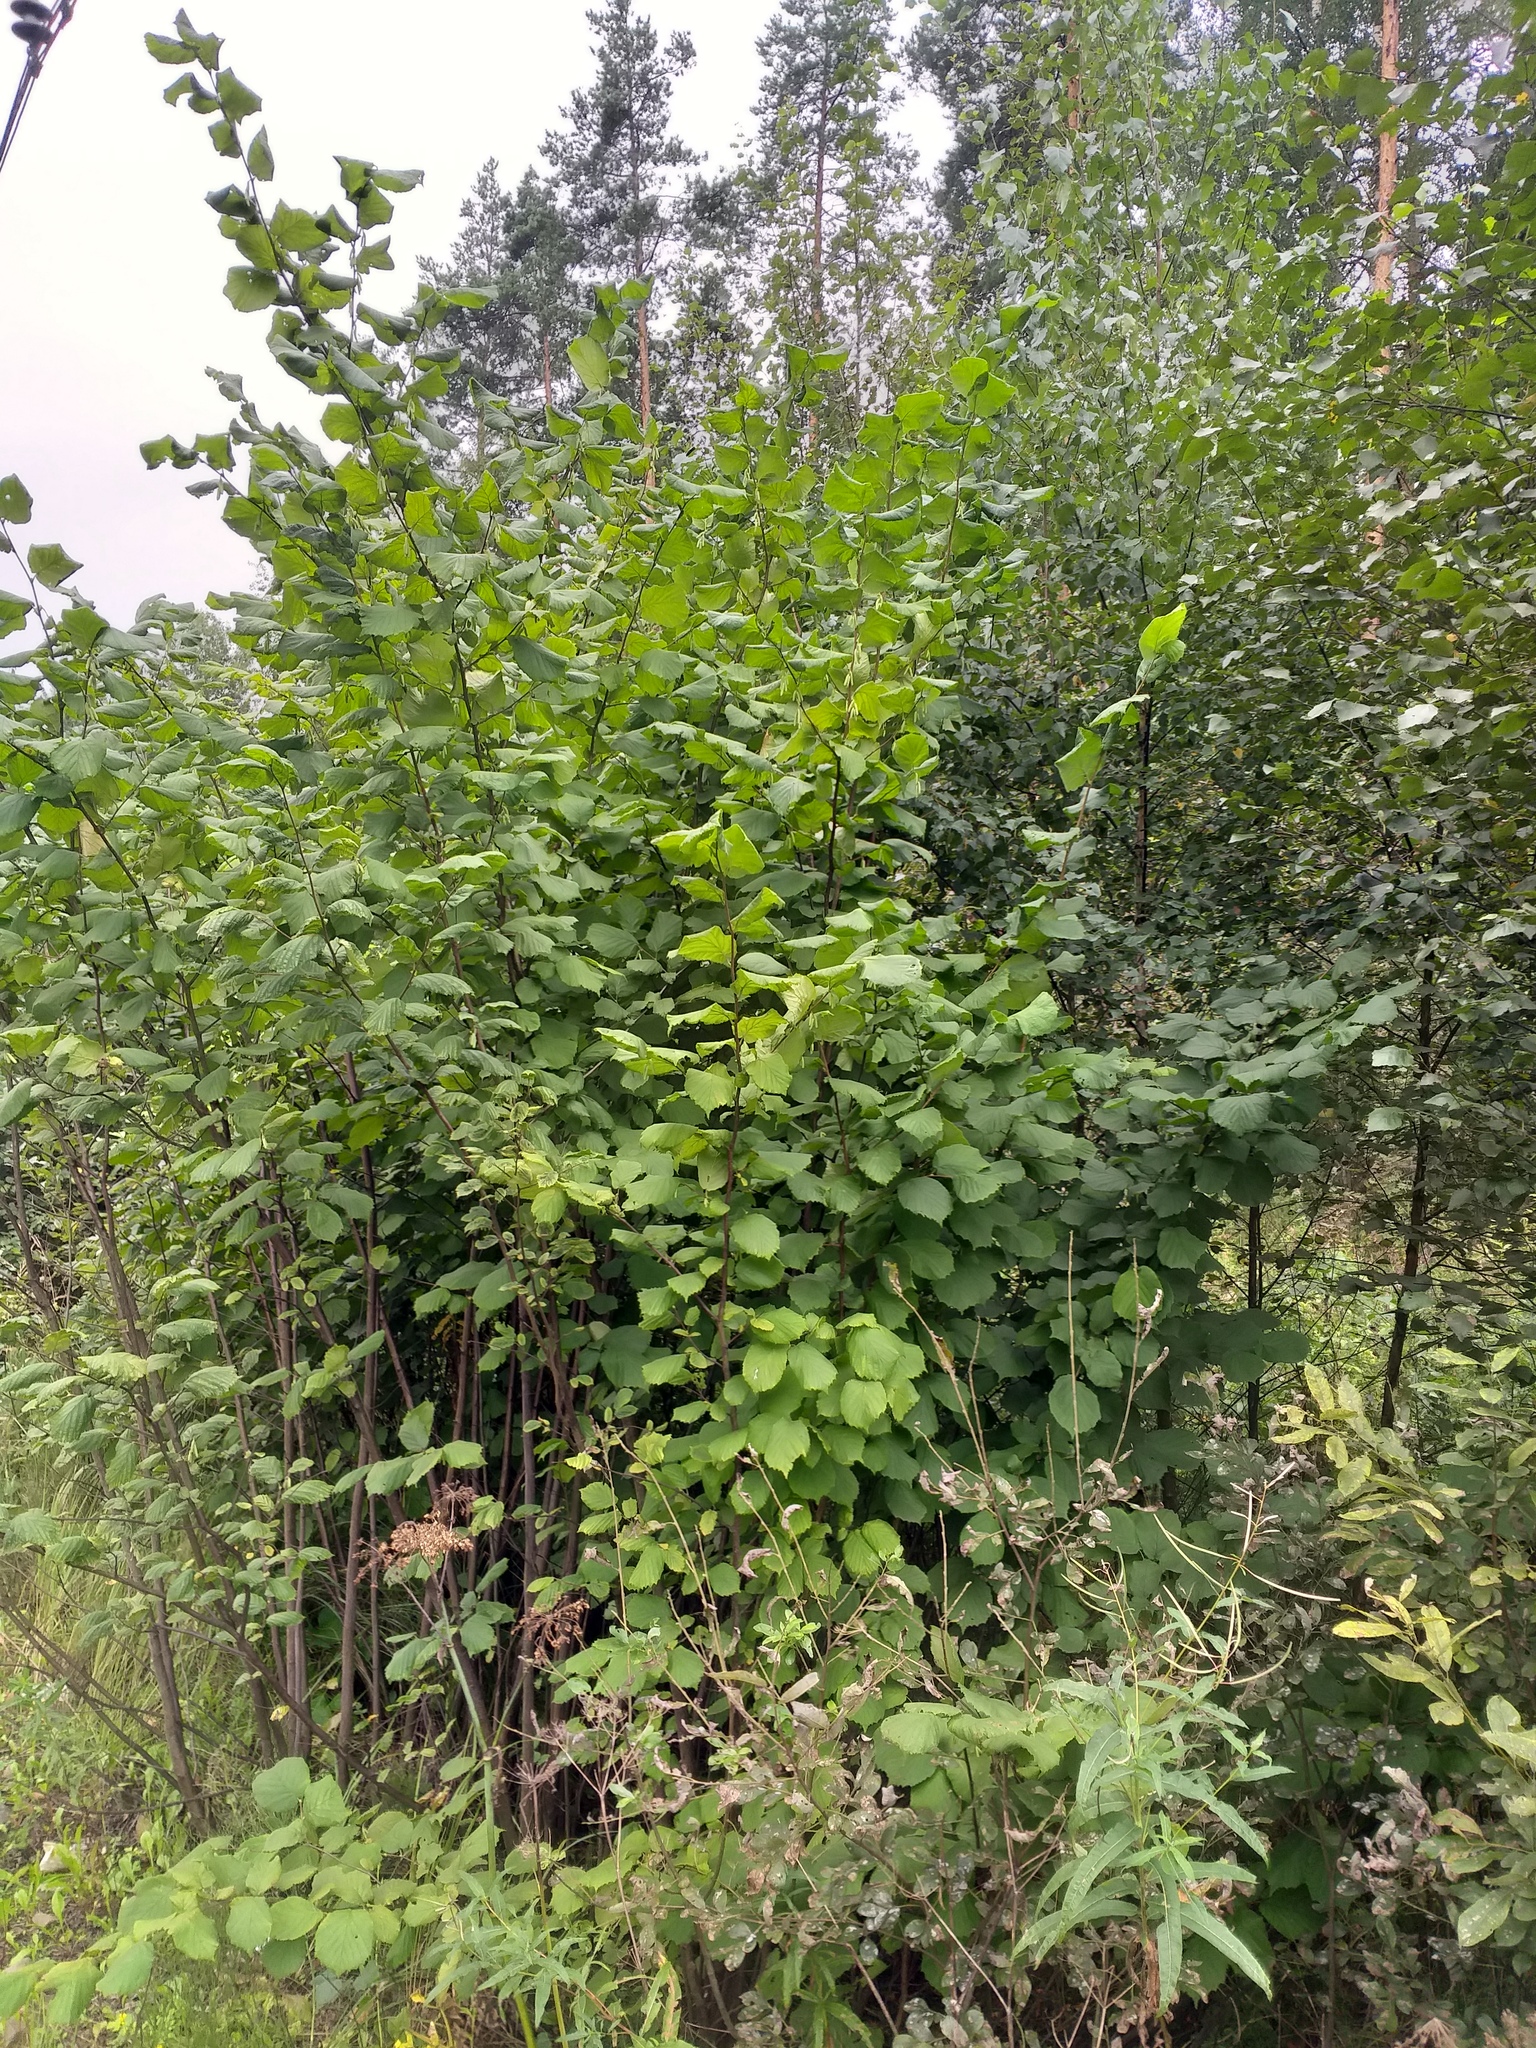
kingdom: Plantae
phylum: Tracheophyta
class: Magnoliopsida
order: Fagales
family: Betulaceae
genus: Corylus
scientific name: Corylus avellana
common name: European hazel
